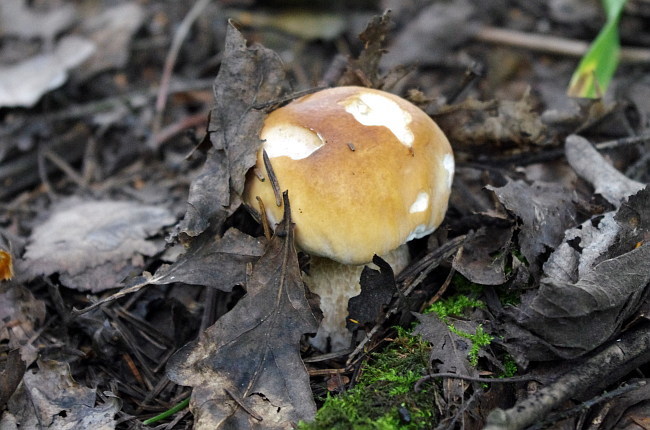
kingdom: Fungi
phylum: Basidiomycota
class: Agaricomycetes
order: Boletales
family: Boletaceae
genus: Boletus
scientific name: Boletus edulis
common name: Cep
